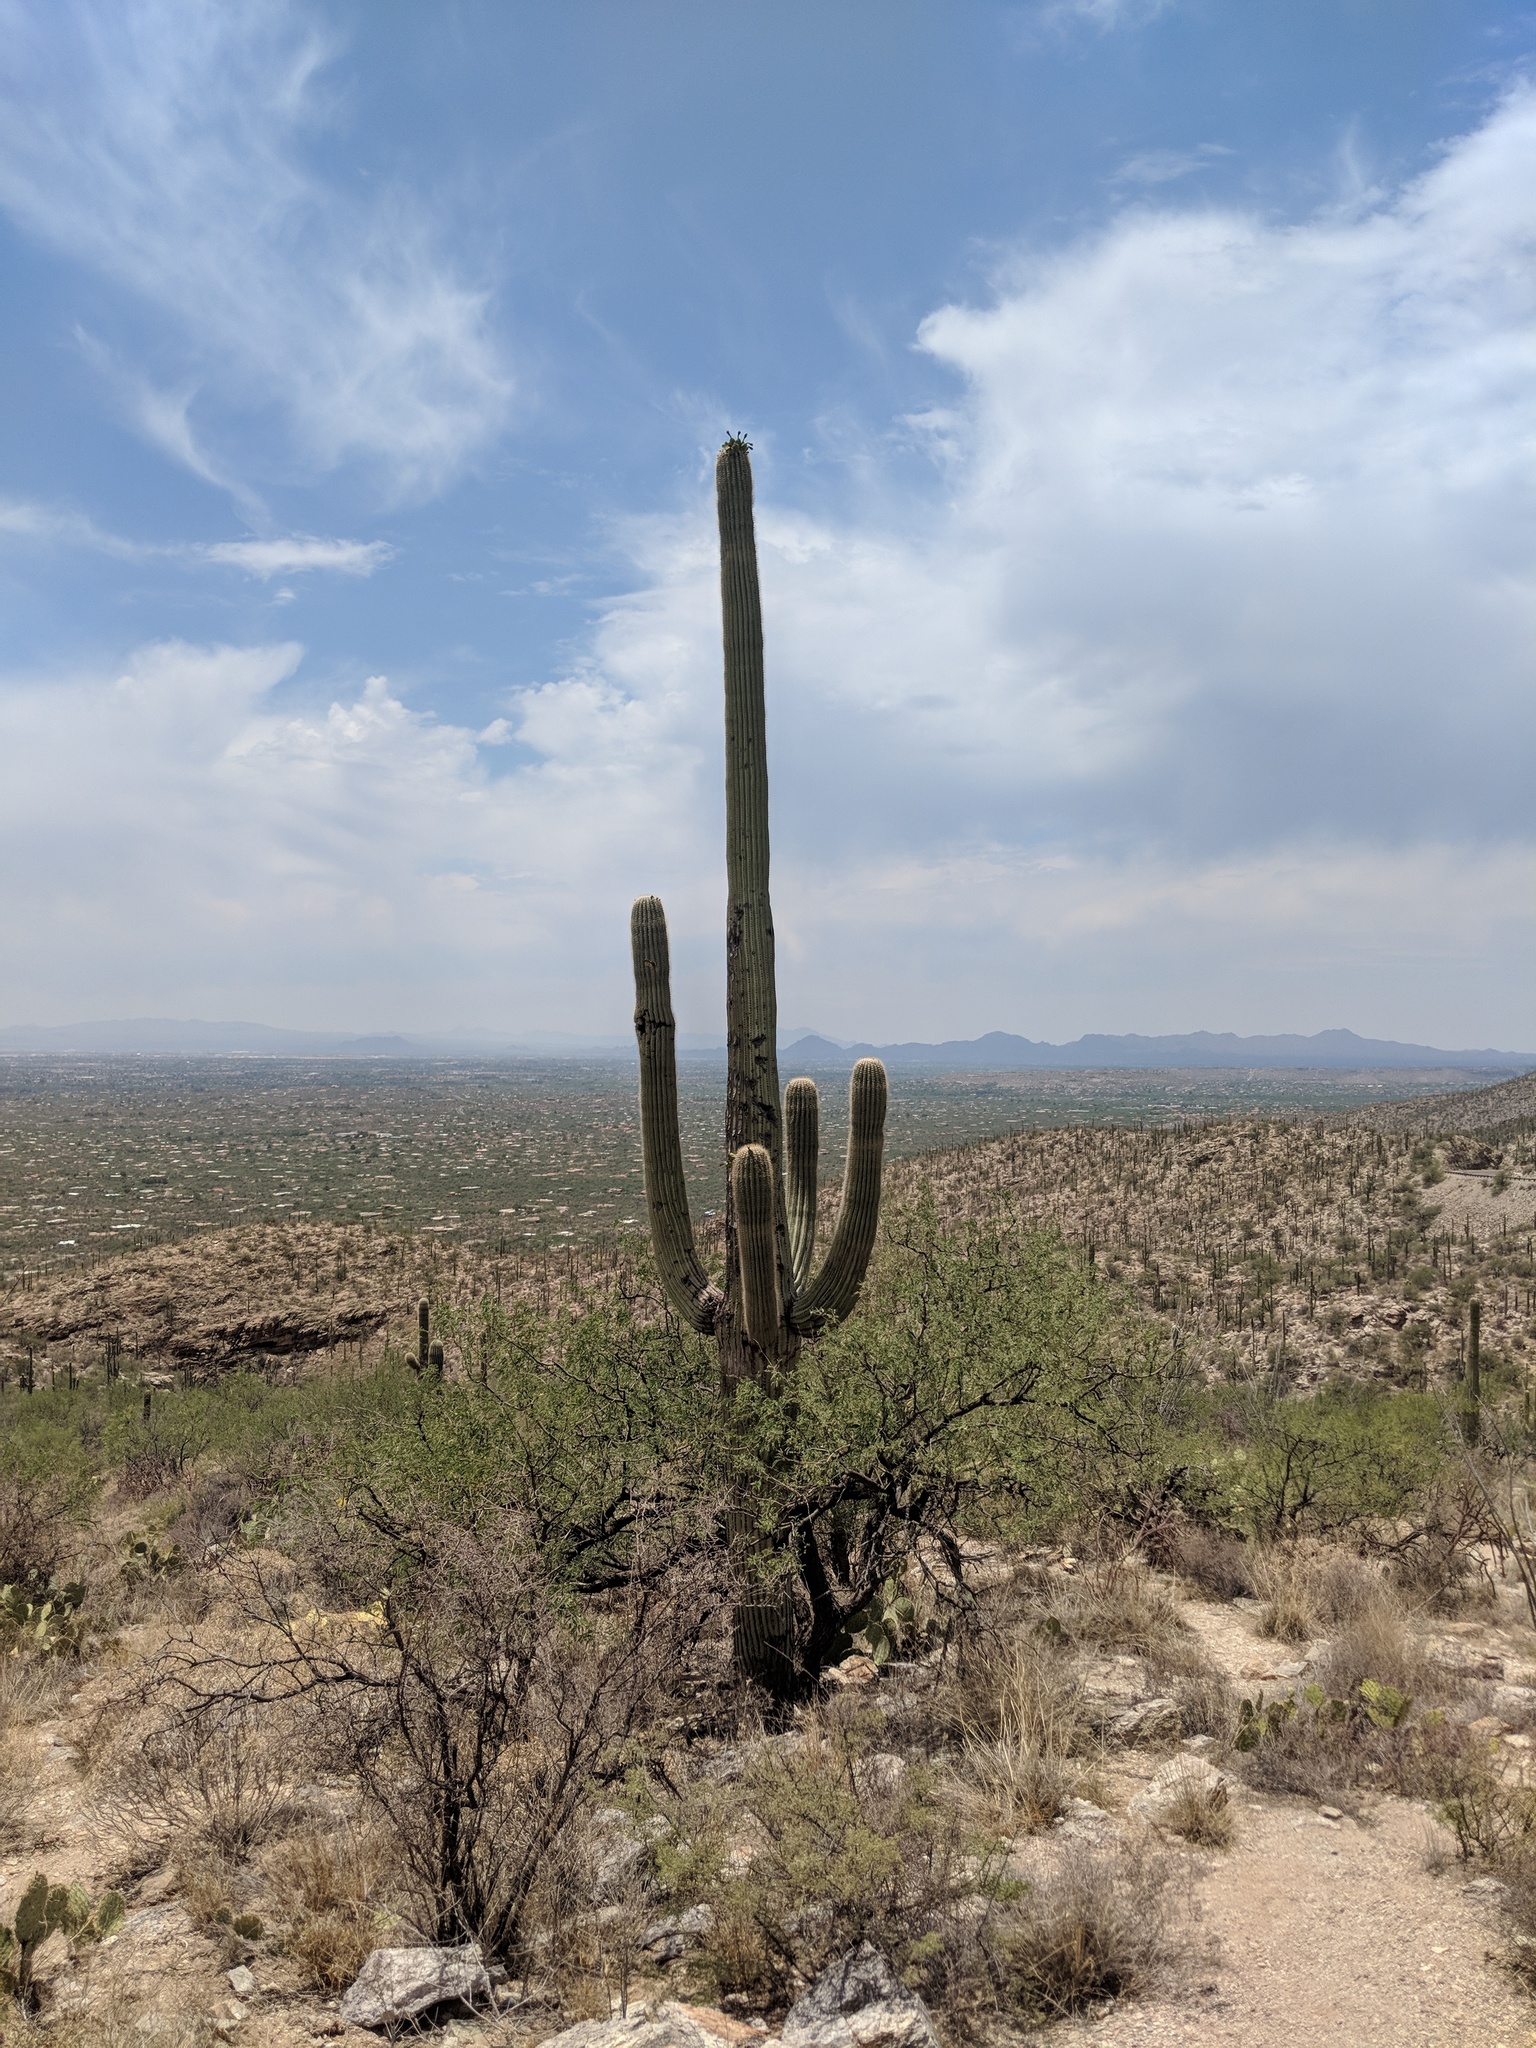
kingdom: Plantae
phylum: Tracheophyta
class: Magnoliopsida
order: Caryophyllales
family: Cactaceae
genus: Carnegiea
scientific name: Carnegiea gigantea
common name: Saguaro
